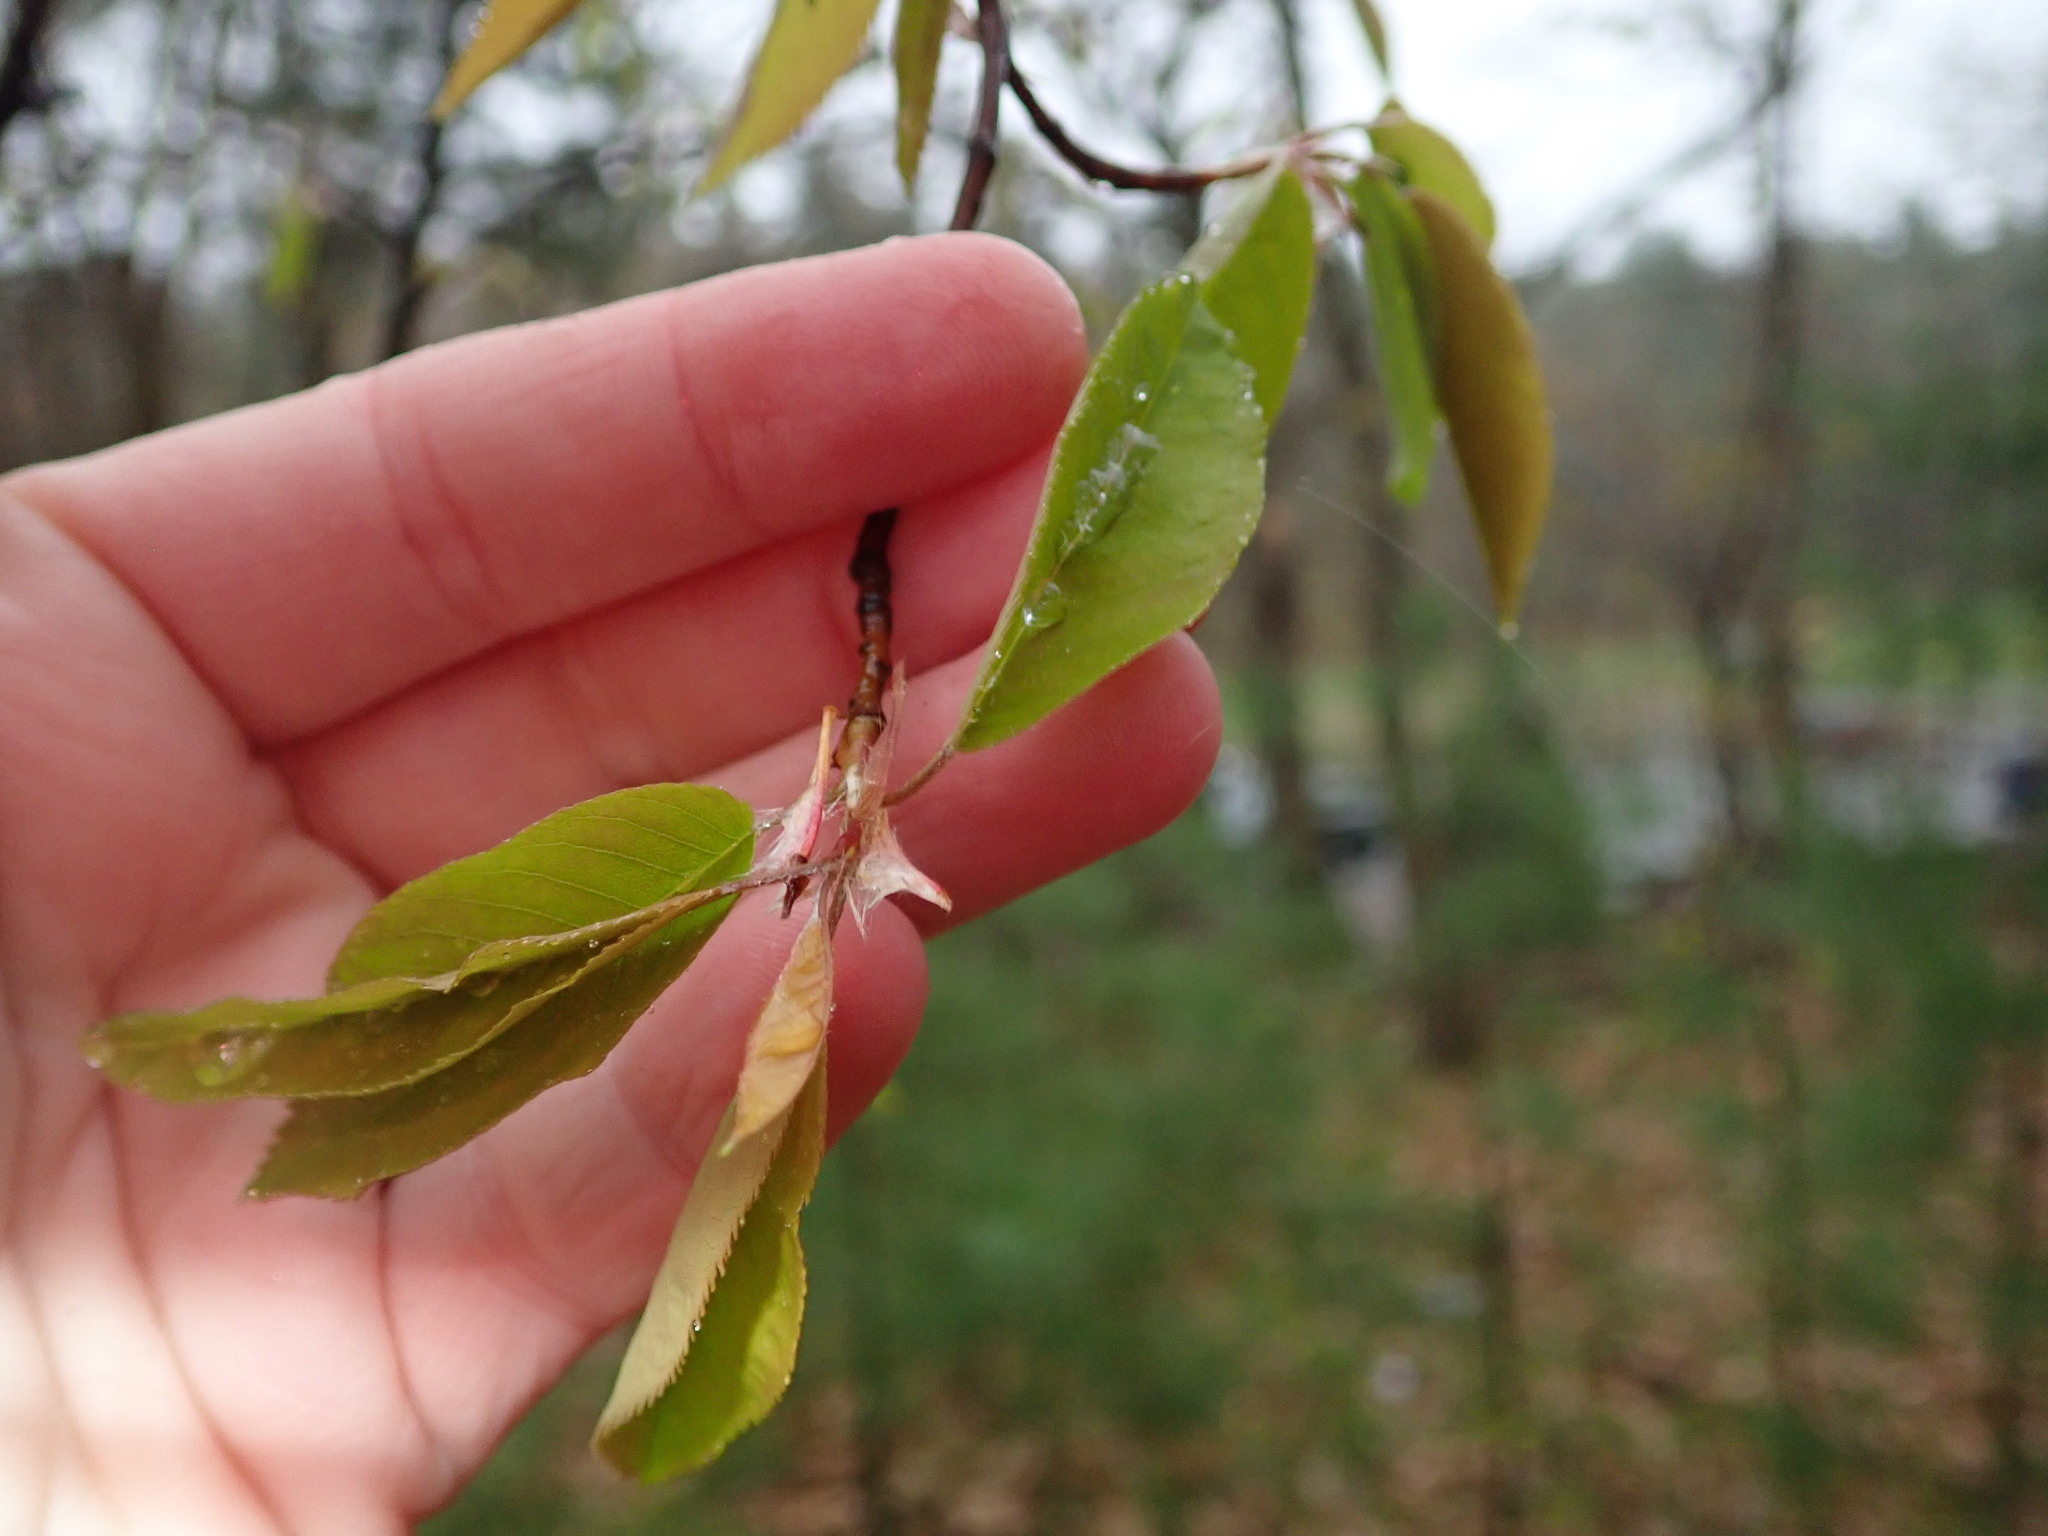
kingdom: Plantae
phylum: Tracheophyta
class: Magnoliopsida
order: Rosales
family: Rosaceae
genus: Prunus
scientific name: Prunus serotina
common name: Black cherry
